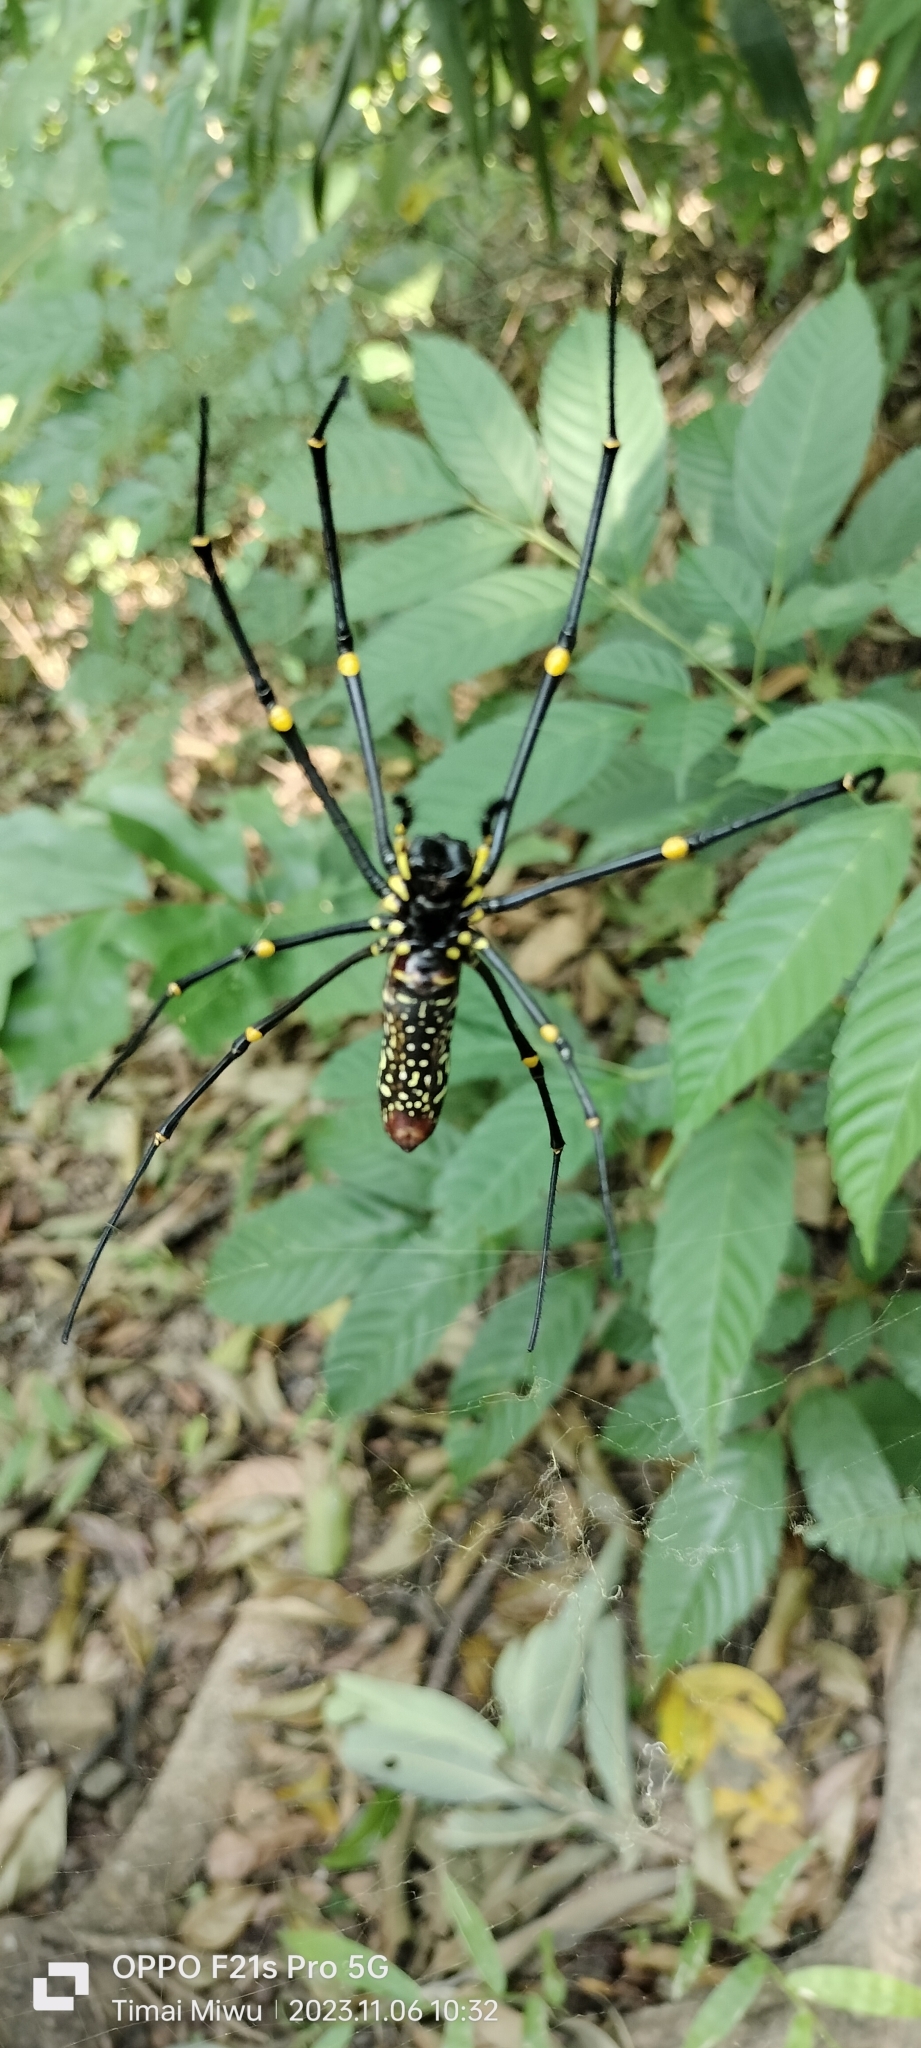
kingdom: Animalia
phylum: Arthropoda
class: Arachnida
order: Araneae
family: Araneidae
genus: Nephila
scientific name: Nephila pilipes
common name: Giant golden orb weaver
